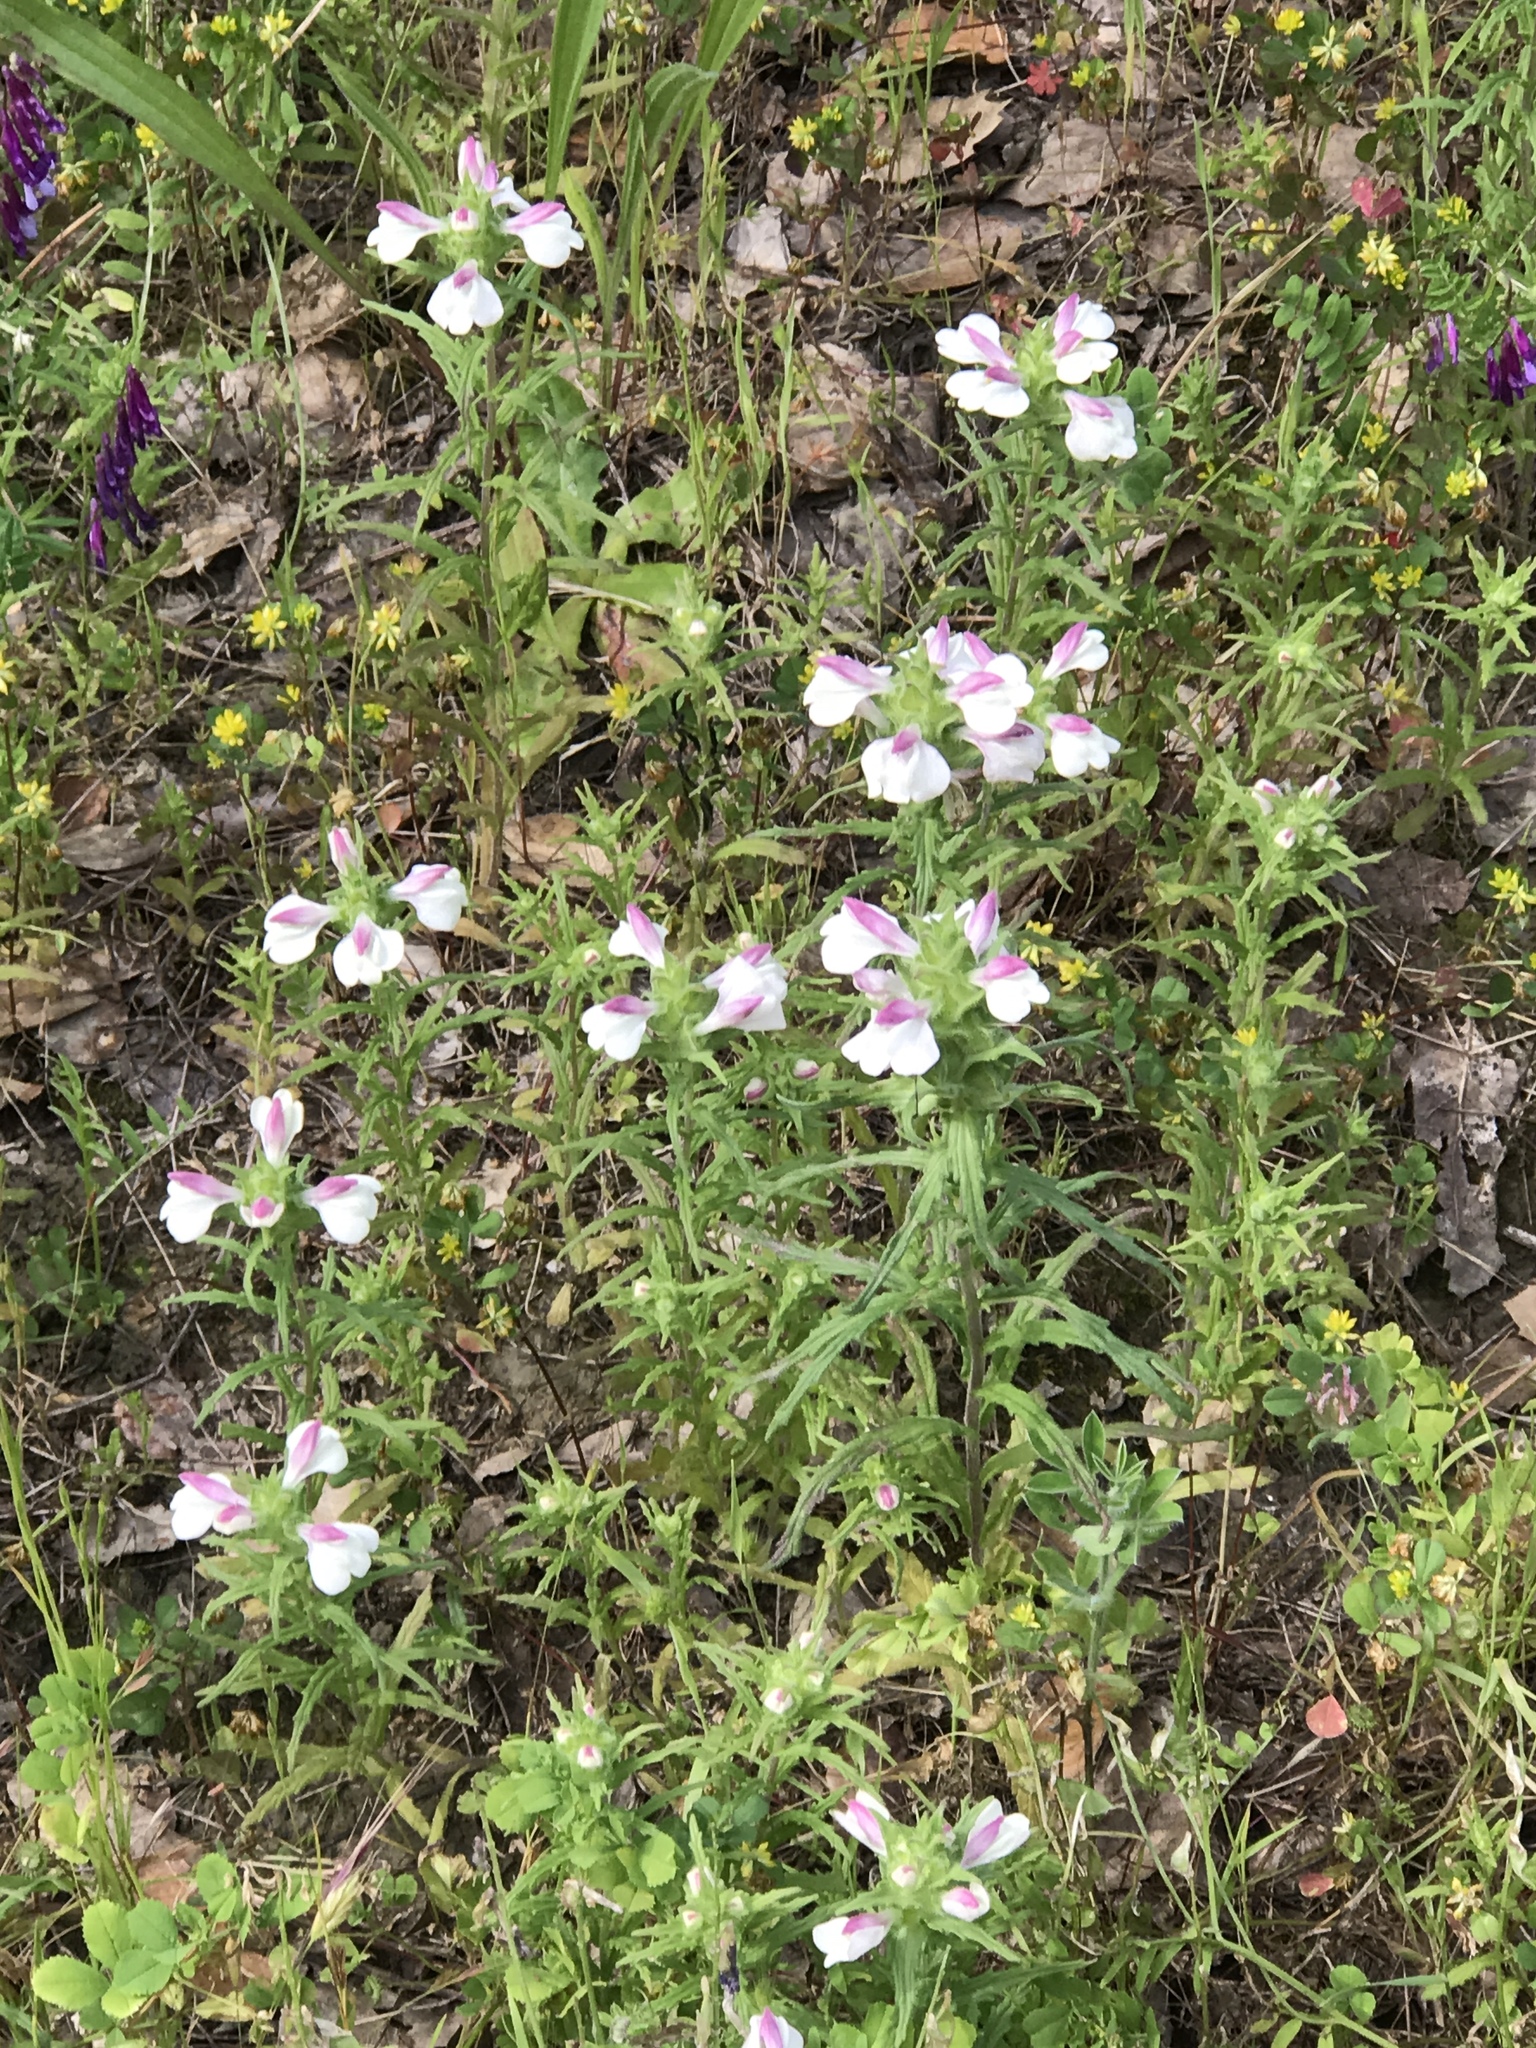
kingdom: Plantae
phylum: Tracheophyta
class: Magnoliopsida
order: Lamiales
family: Orobanchaceae
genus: Bellardia
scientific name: Bellardia trixago
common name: Mediterranean lineseed
